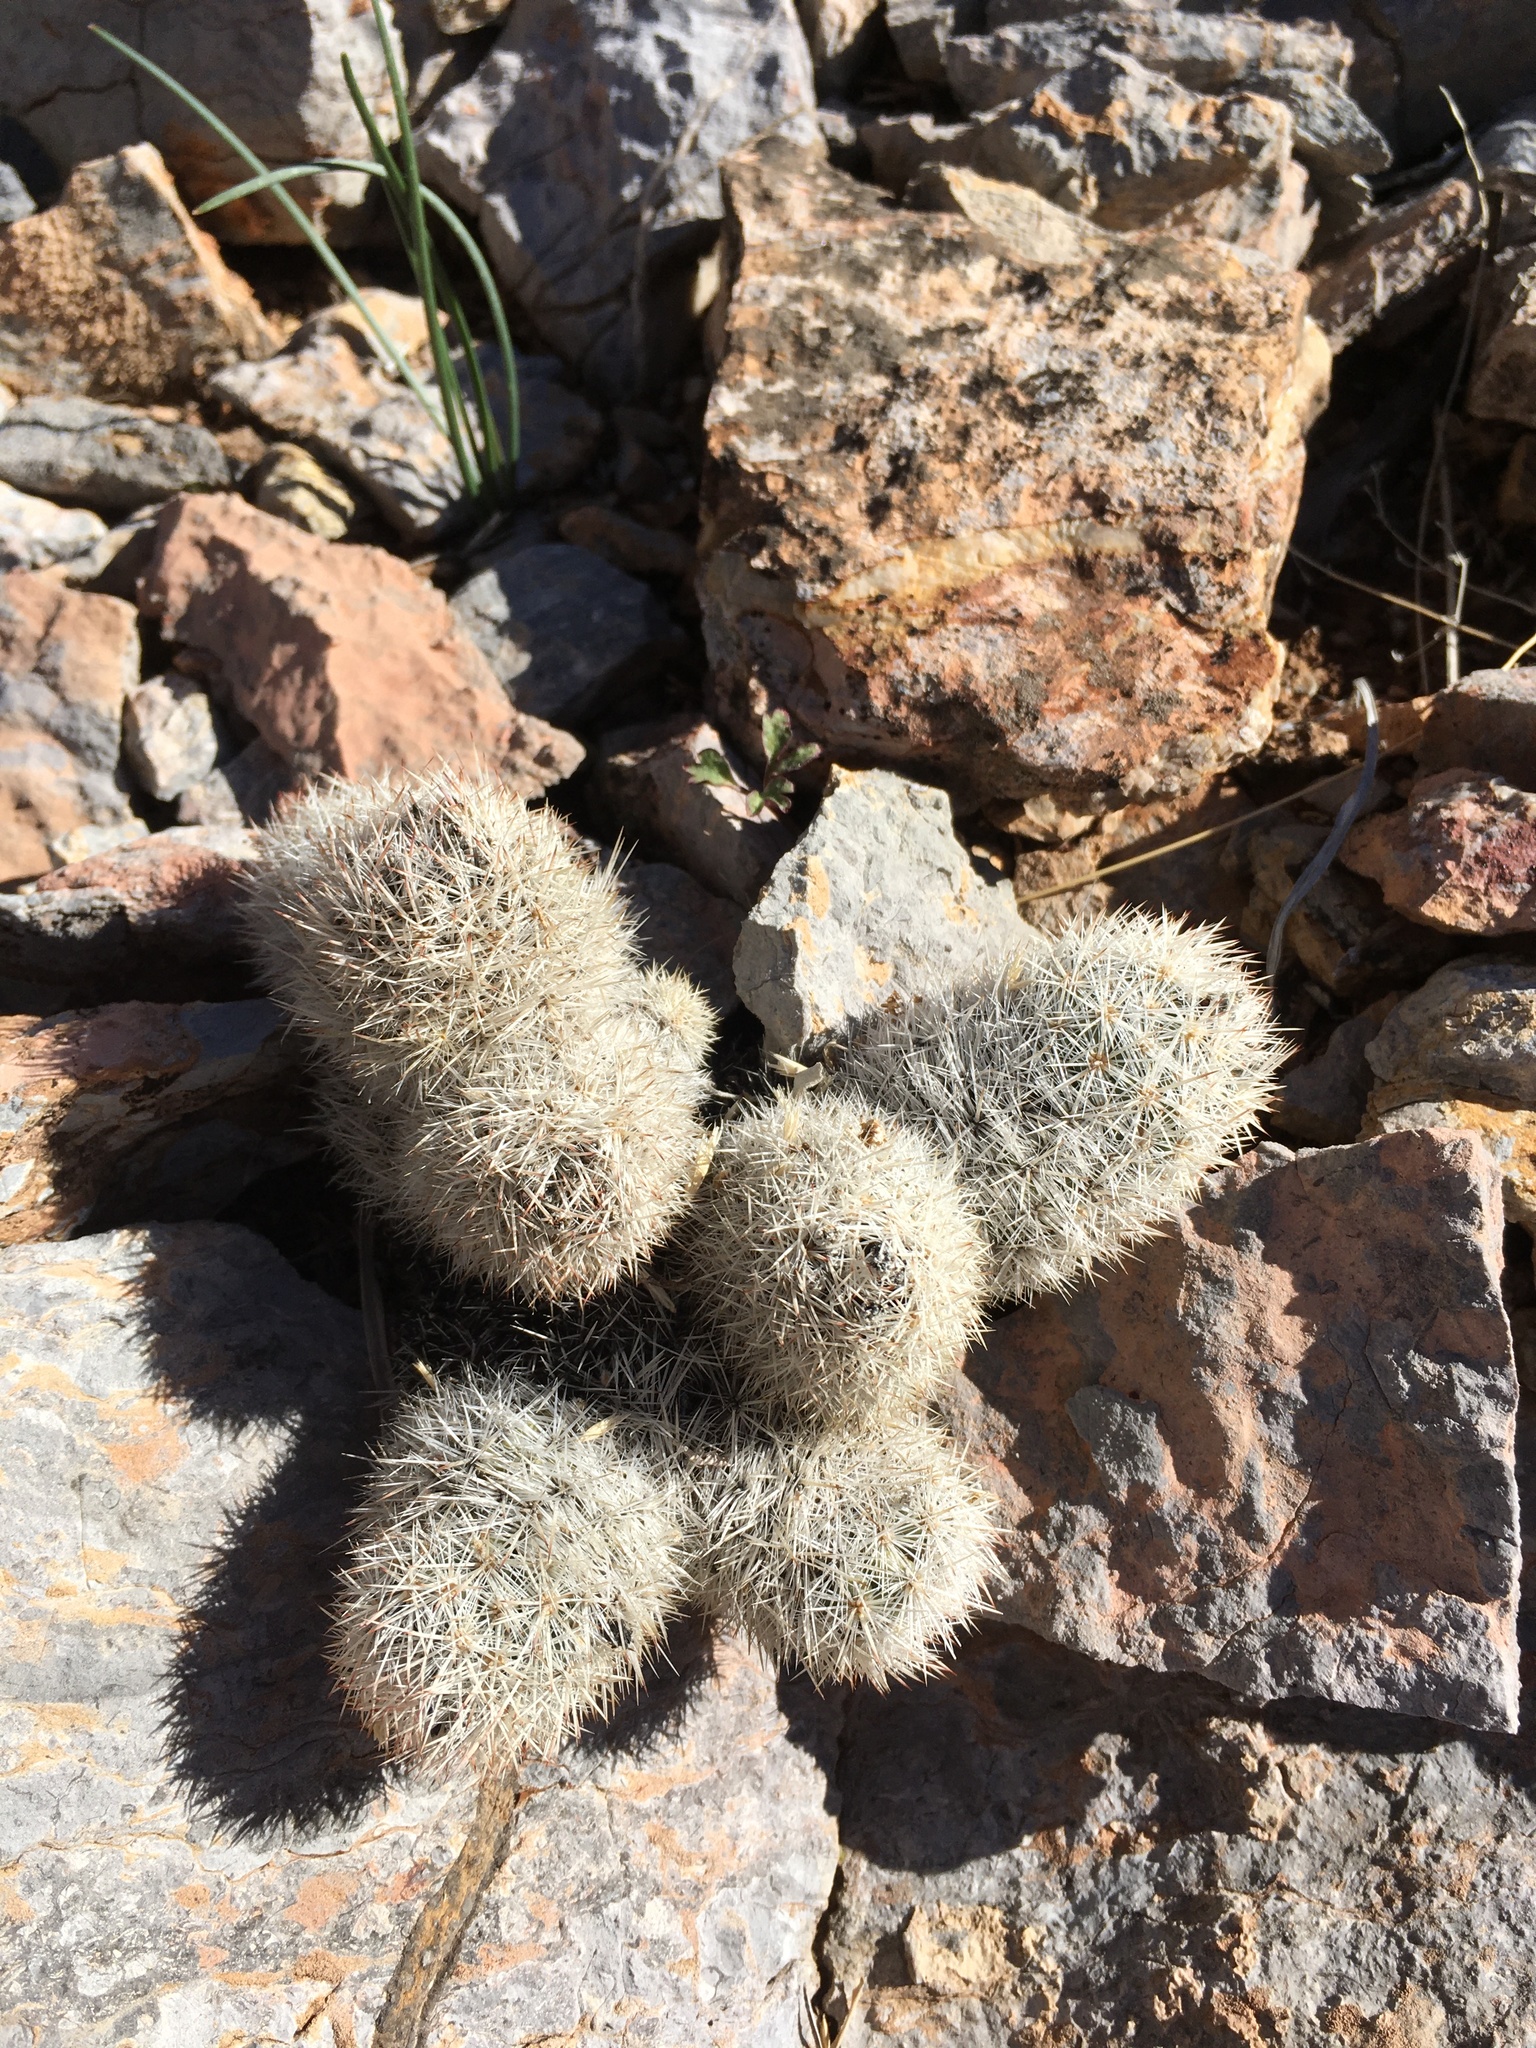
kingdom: Plantae
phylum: Tracheophyta
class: Magnoliopsida
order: Caryophyllales
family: Cactaceae
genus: Pelecyphora
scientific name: Pelecyphora sneedii
